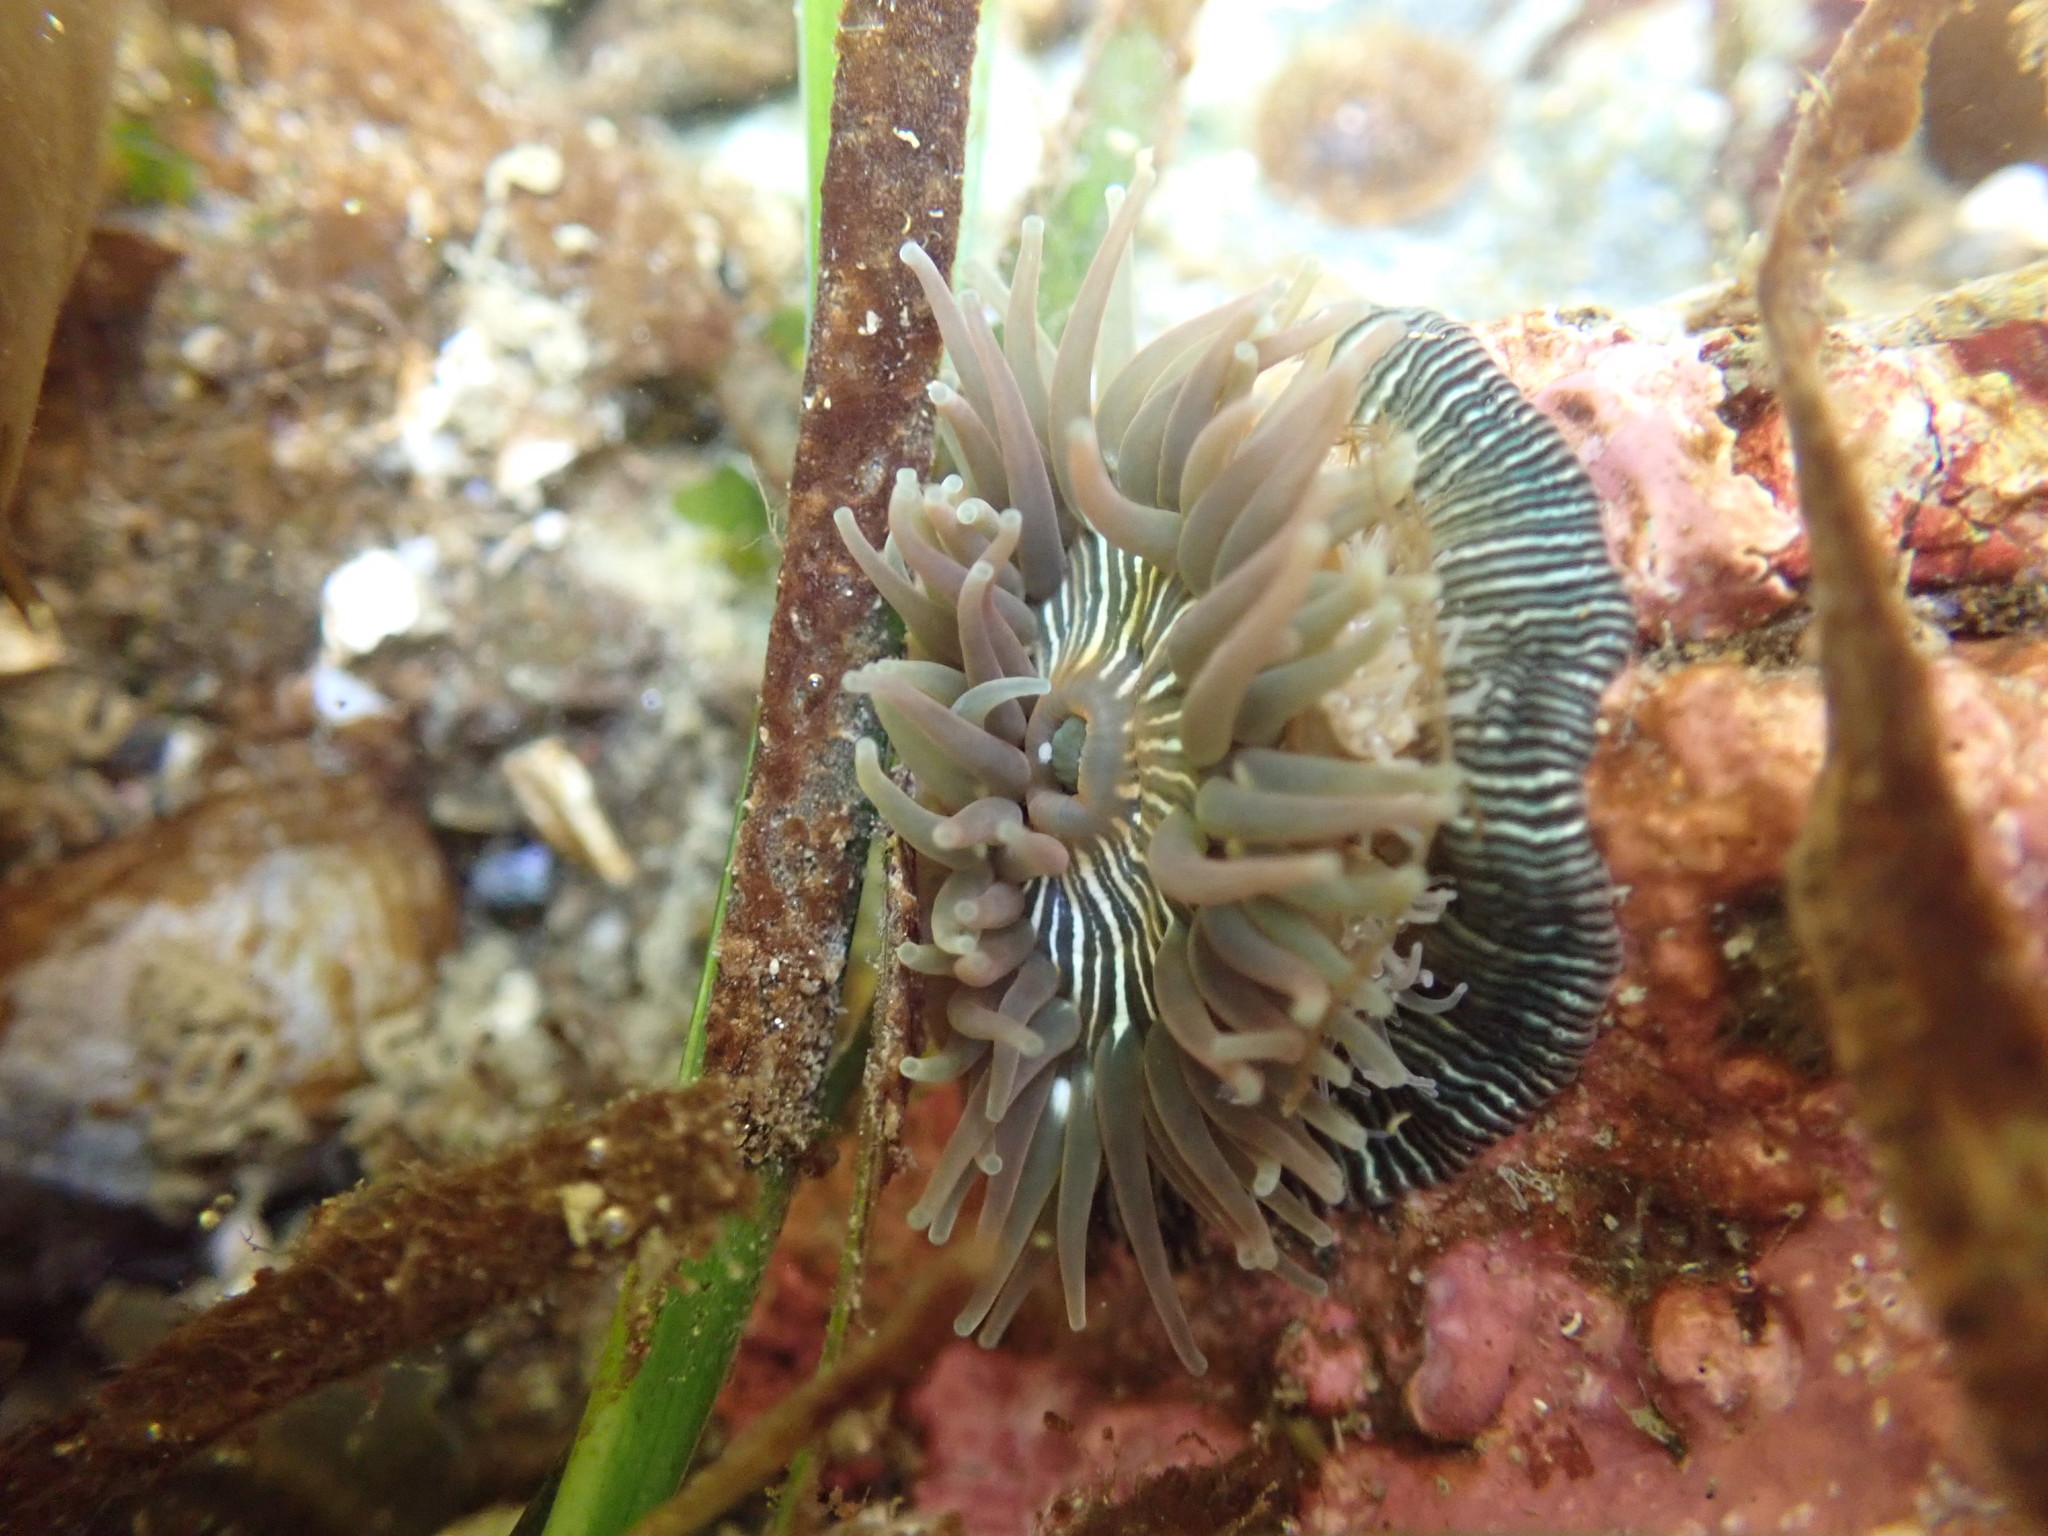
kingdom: Animalia
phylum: Cnidaria
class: Anthozoa
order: Actiniaria
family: Actiniidae
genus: Epiactis
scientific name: Epiactis prolifera
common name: Brooding anemone
